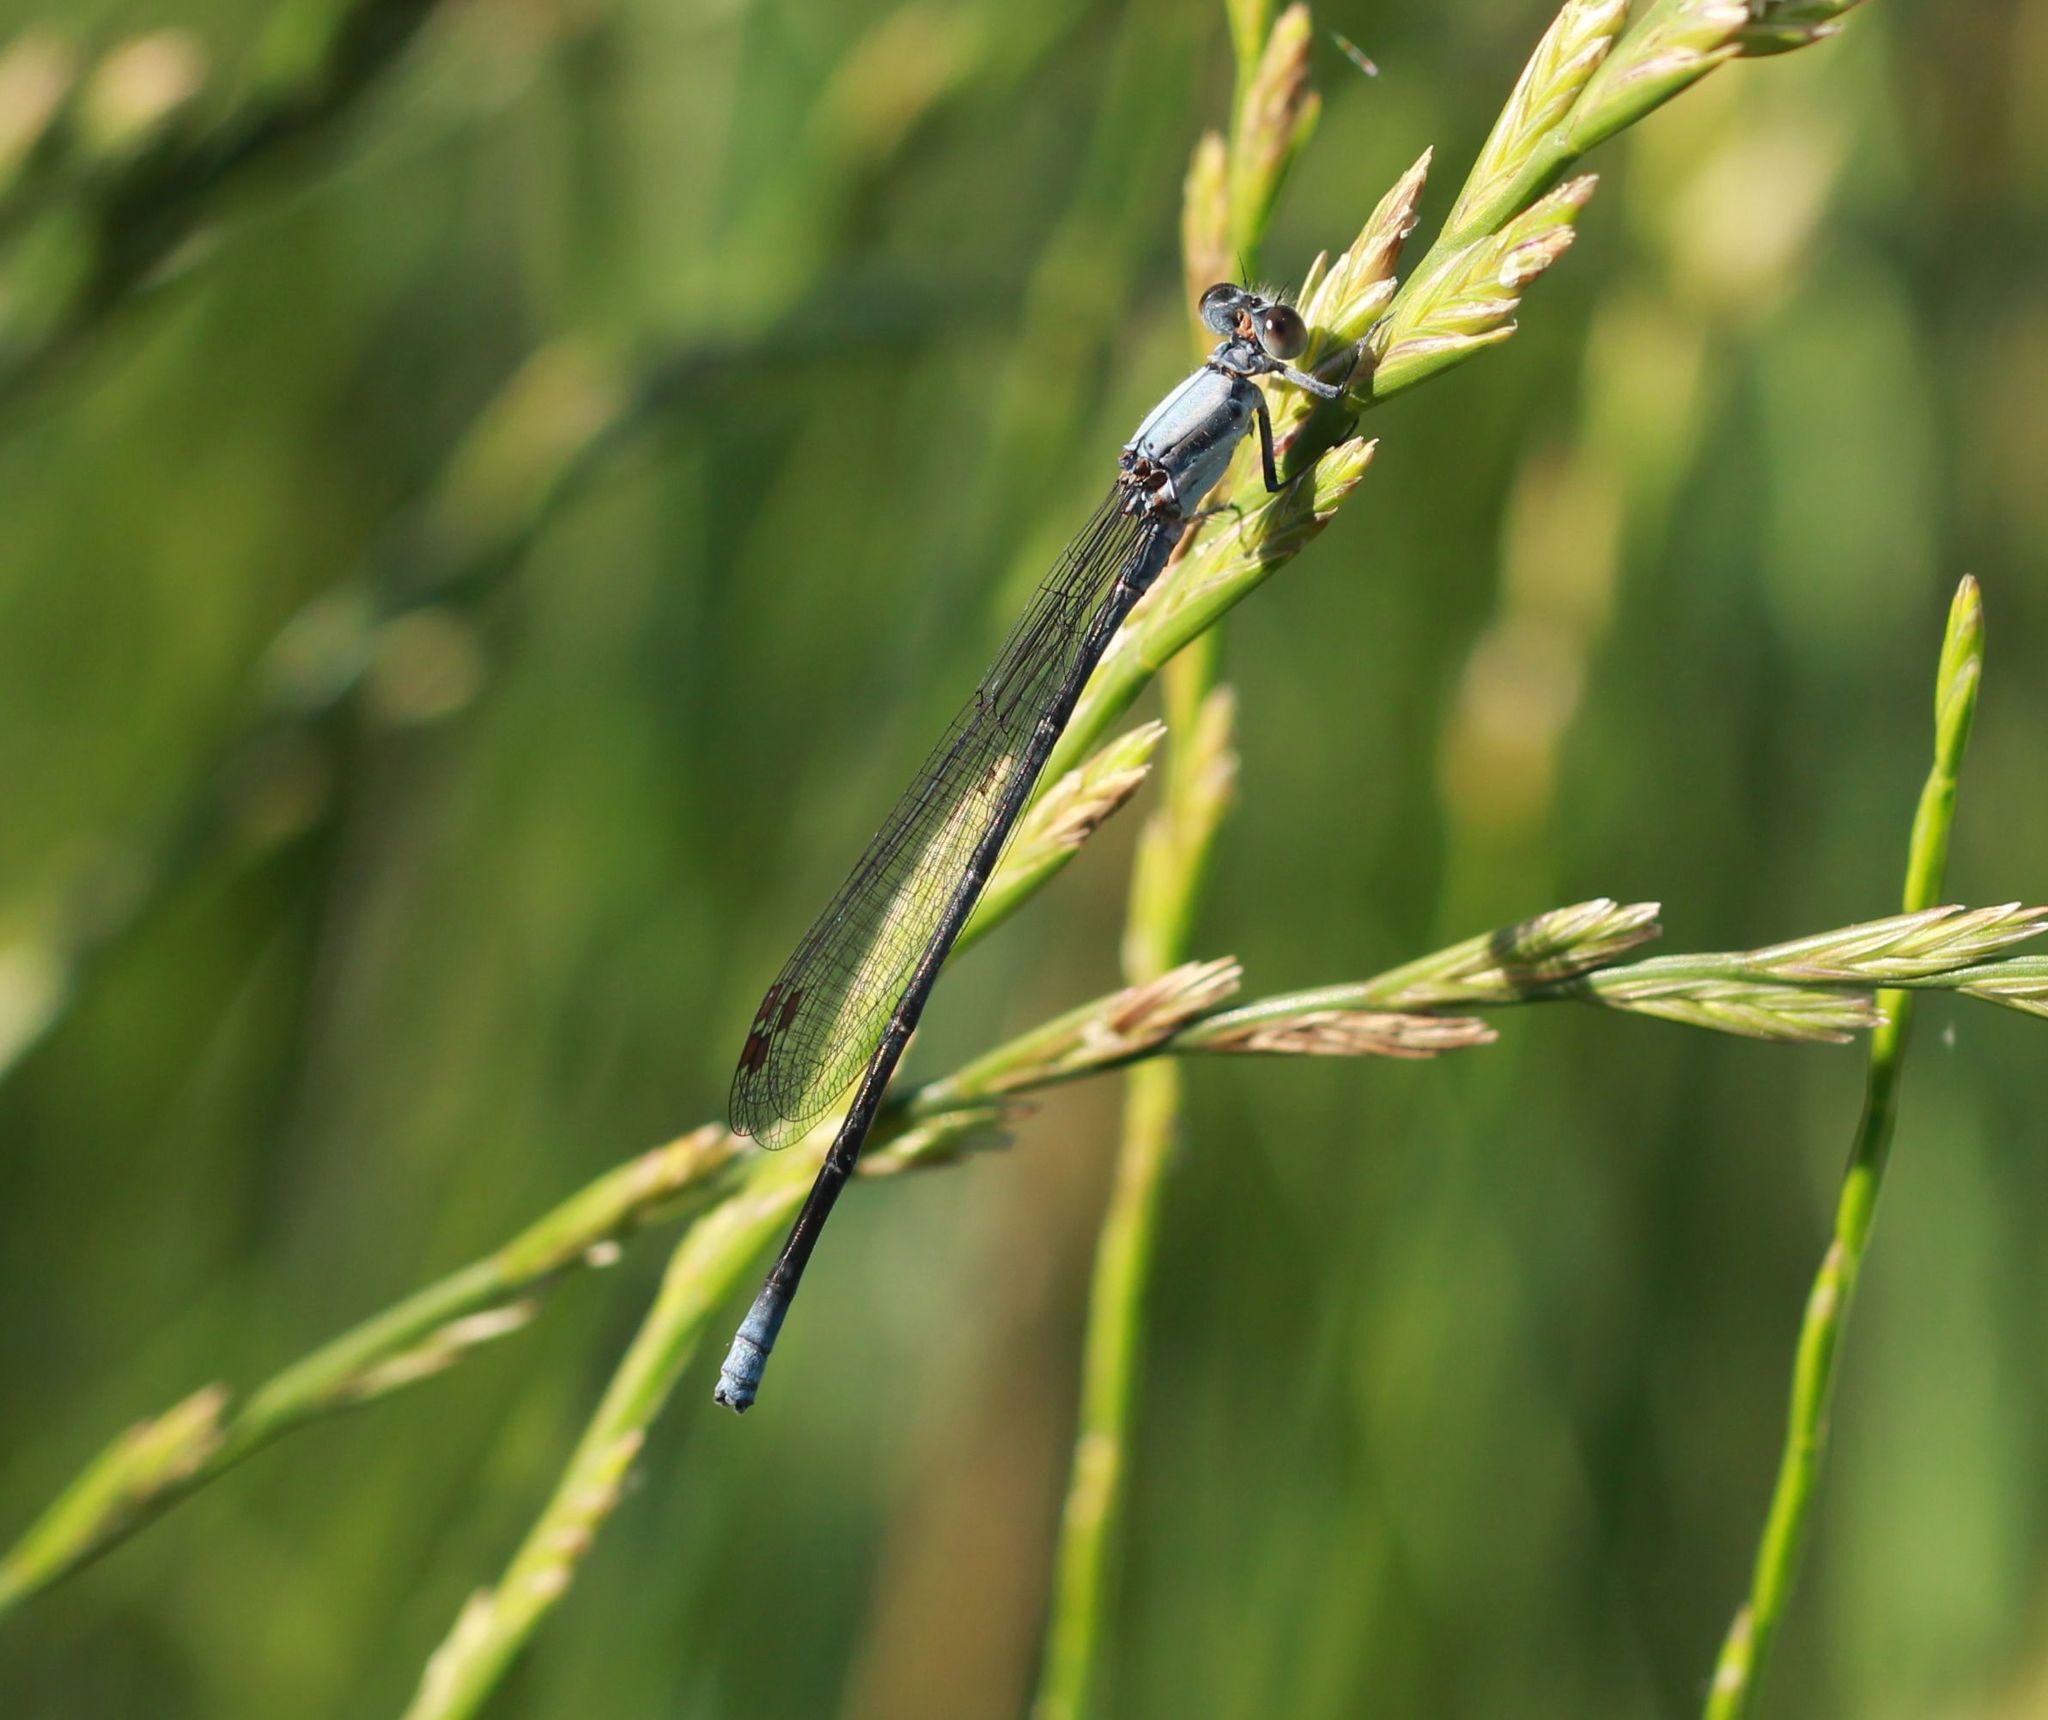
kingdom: Animalia
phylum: Arthropoda
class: Insecta
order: Odonata
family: Coenagrionidae
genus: Argia
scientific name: Argia moesta
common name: Powdered dancer
